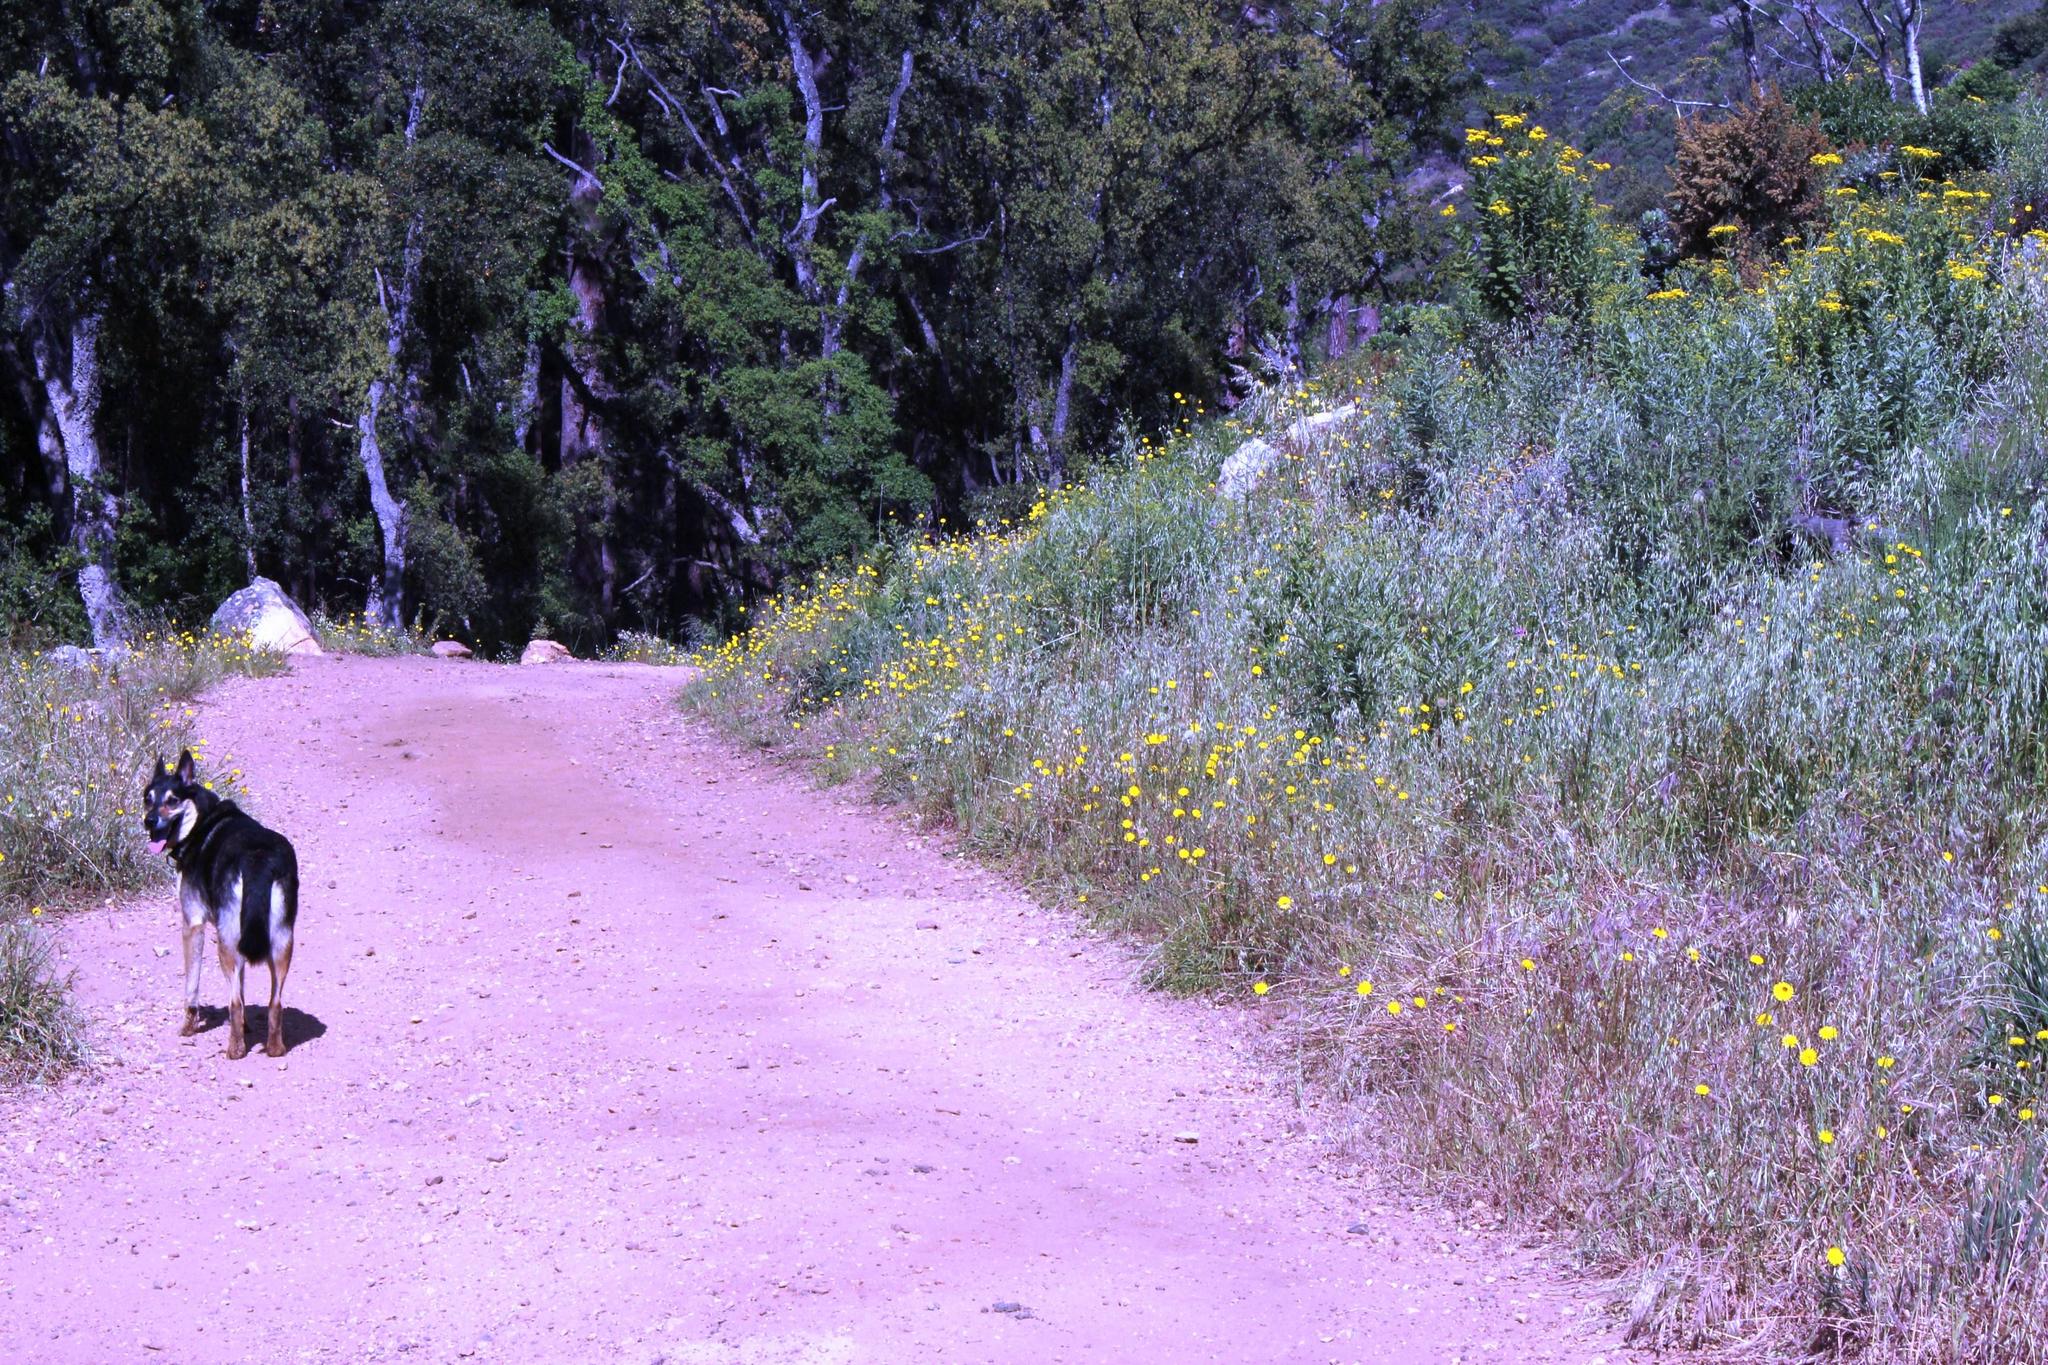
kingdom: Plantae
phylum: Tracheophyta
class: Magnoliopsida
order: Asterales
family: Asteraceae
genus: Hypochaeris
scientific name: Hypochaeris radicata
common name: Flatweed
